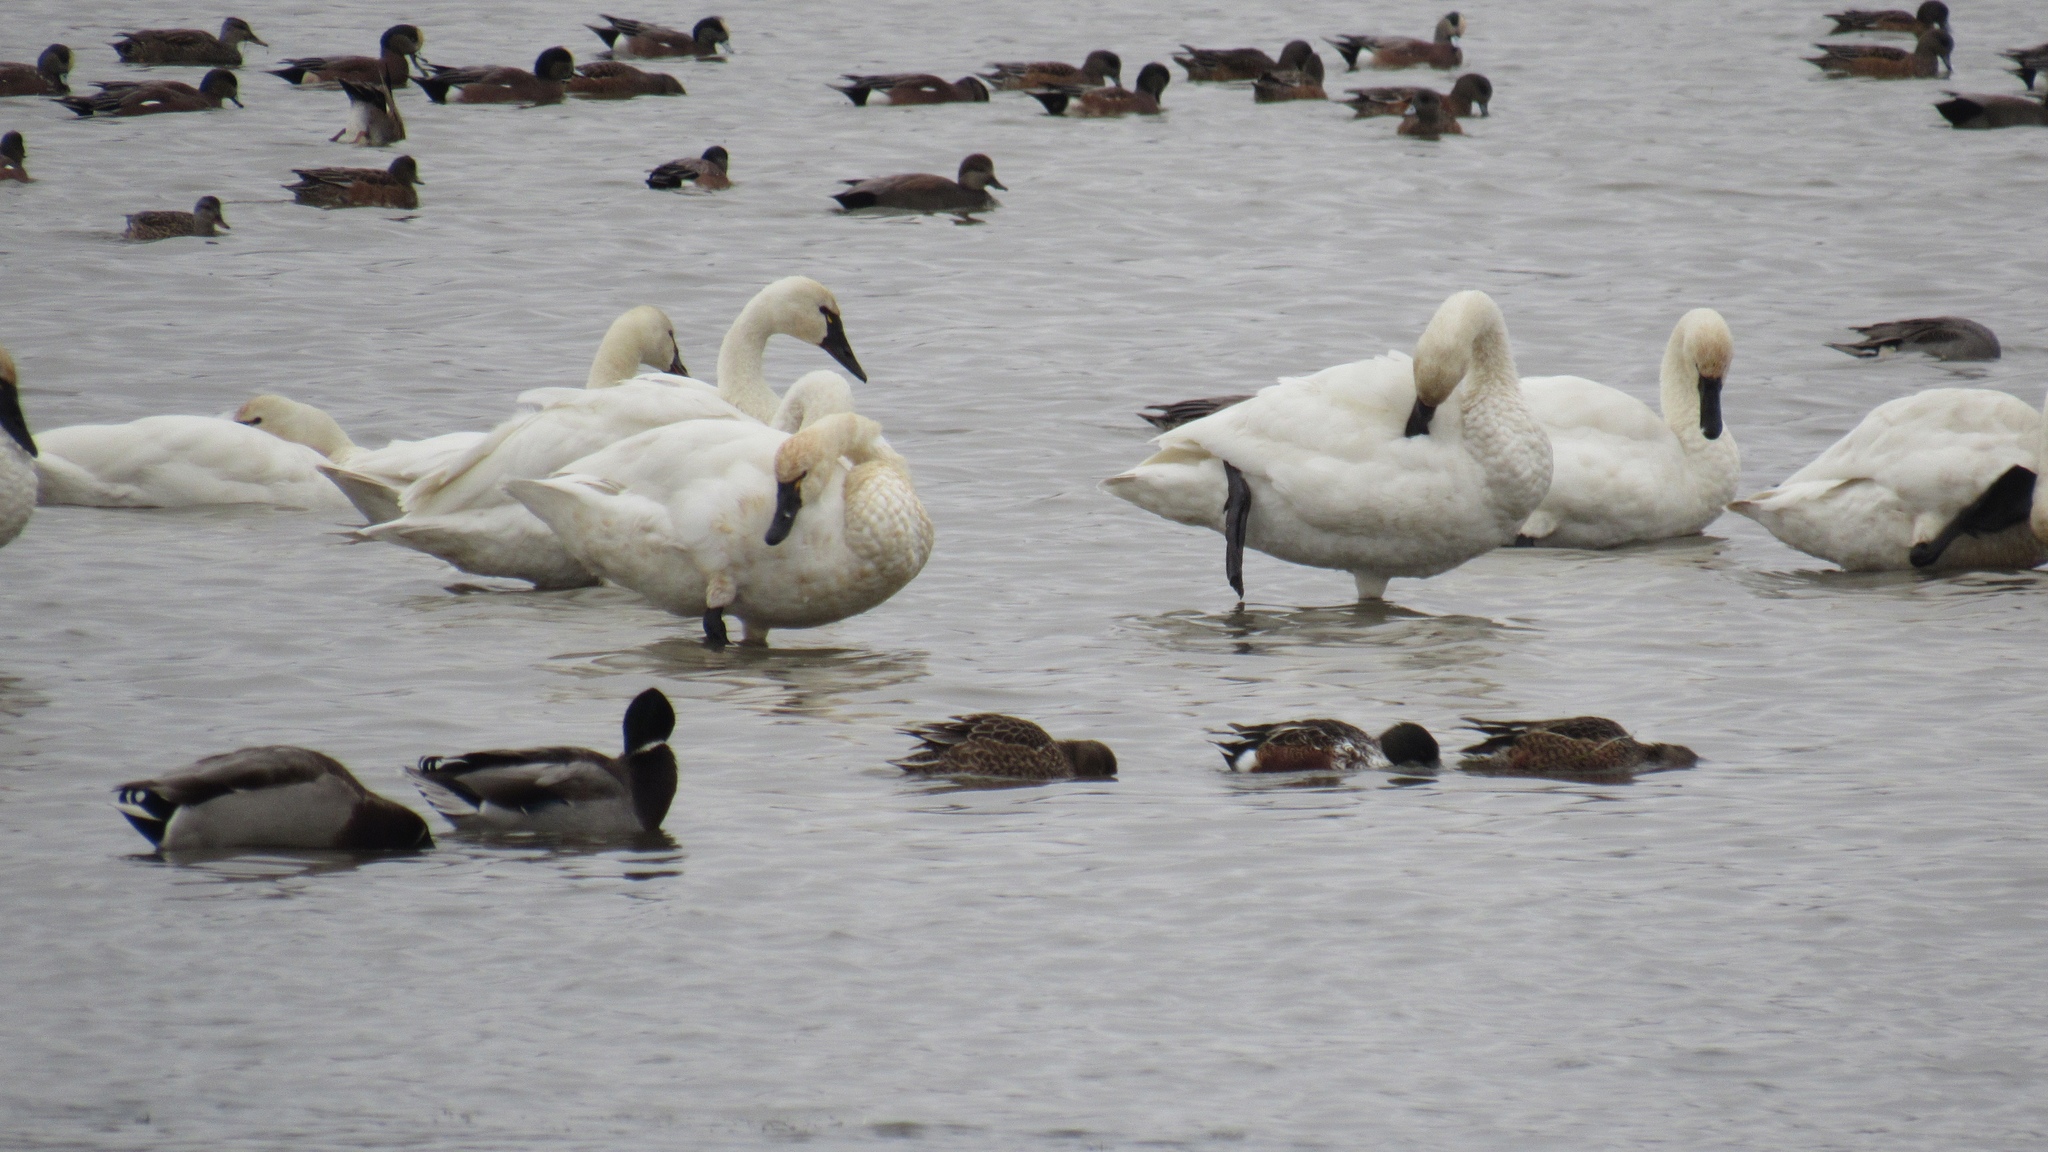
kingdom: Animalia
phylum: Chordata
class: Aves
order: Anseriformes
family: Anatidae
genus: Cygnus
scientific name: Cygnus columbianus
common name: Tundra swan
